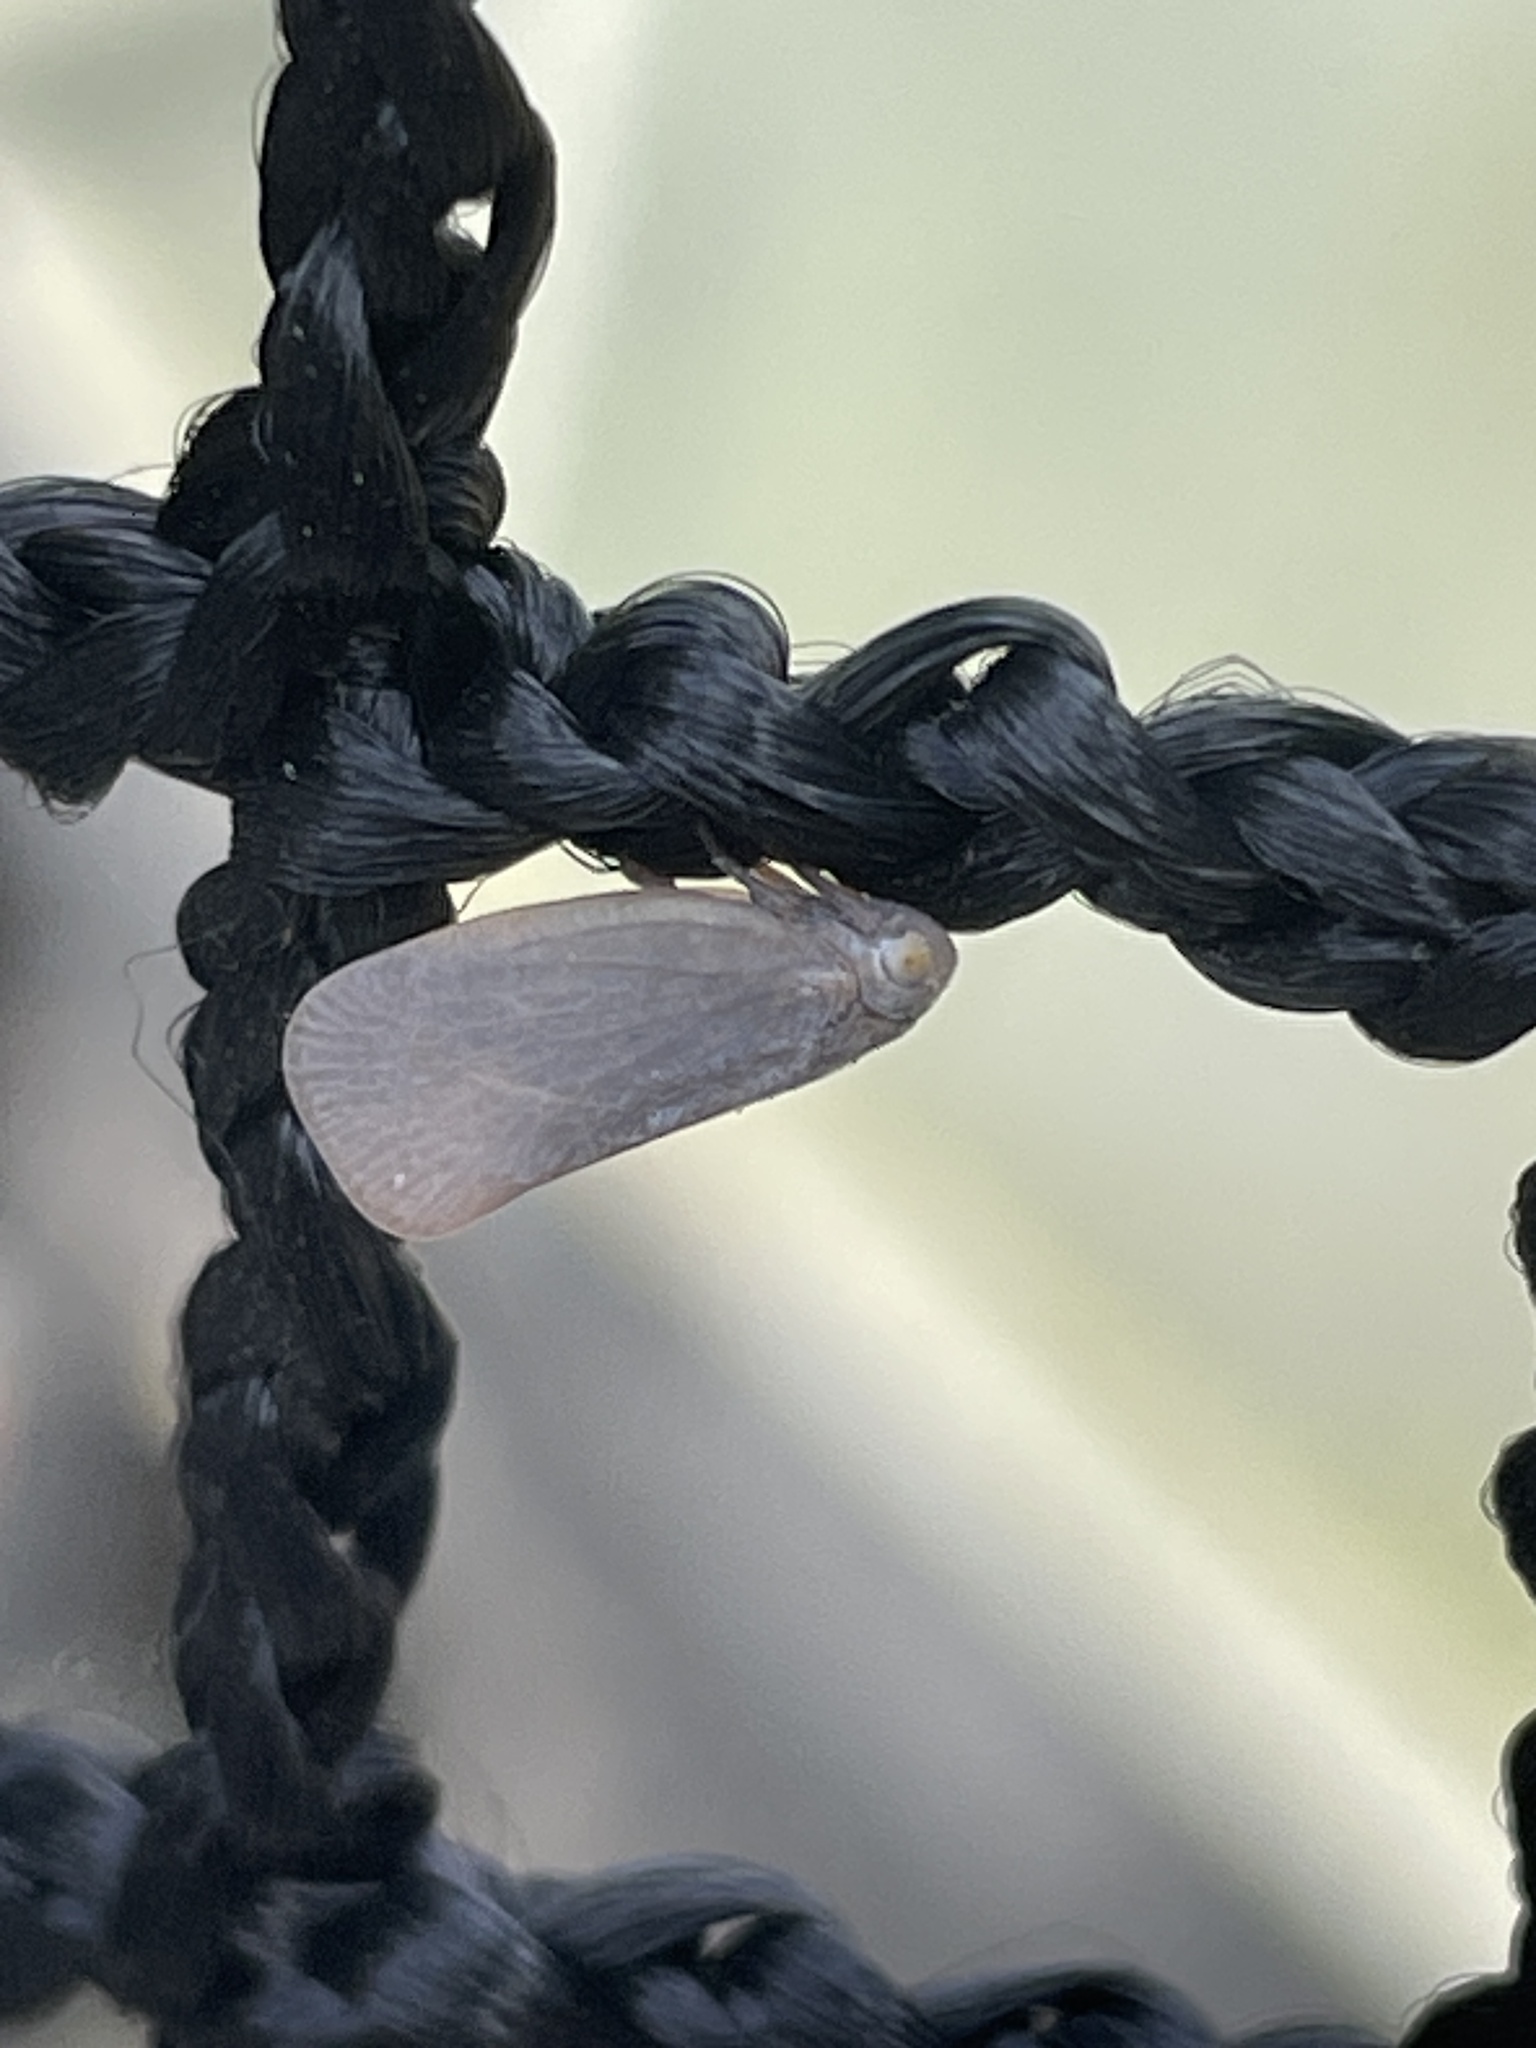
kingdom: Animalia
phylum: Arthropoda
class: Insecta
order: Hemiptera
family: Flatidae
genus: Anzora
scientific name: Anzora unicolor
